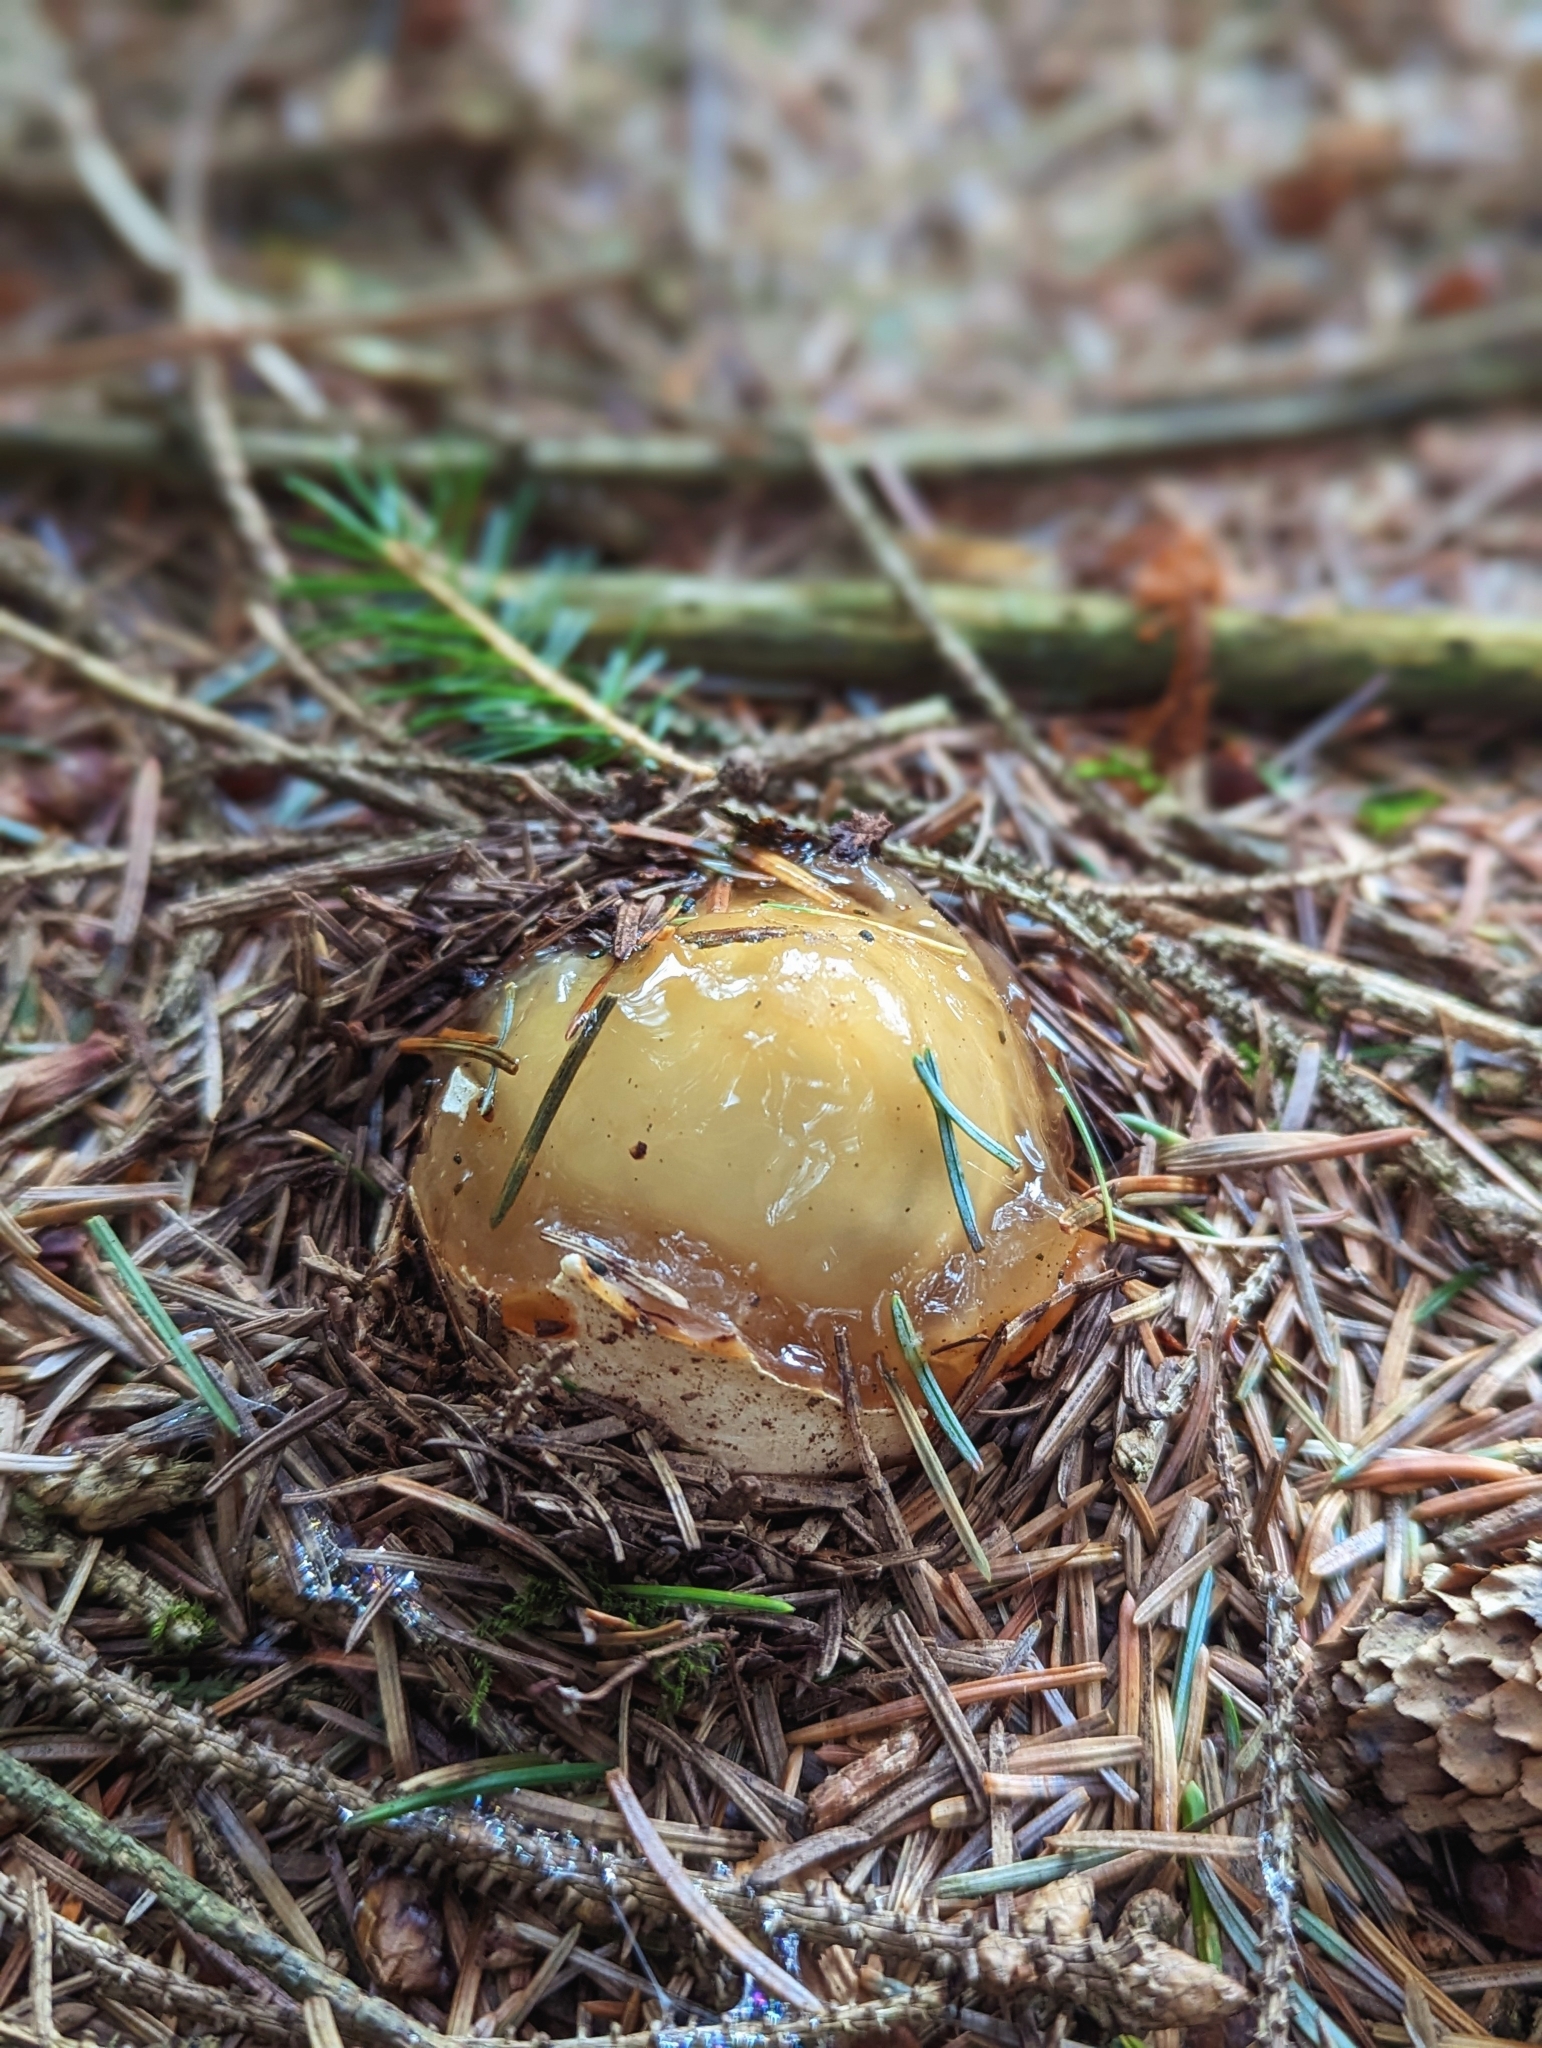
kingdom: Fungi
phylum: Basidiomycota
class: Agaricomycetes
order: Phallales
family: Phallaceae
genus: Phallus
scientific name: Phallus impudicus
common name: Common stinkhorn
